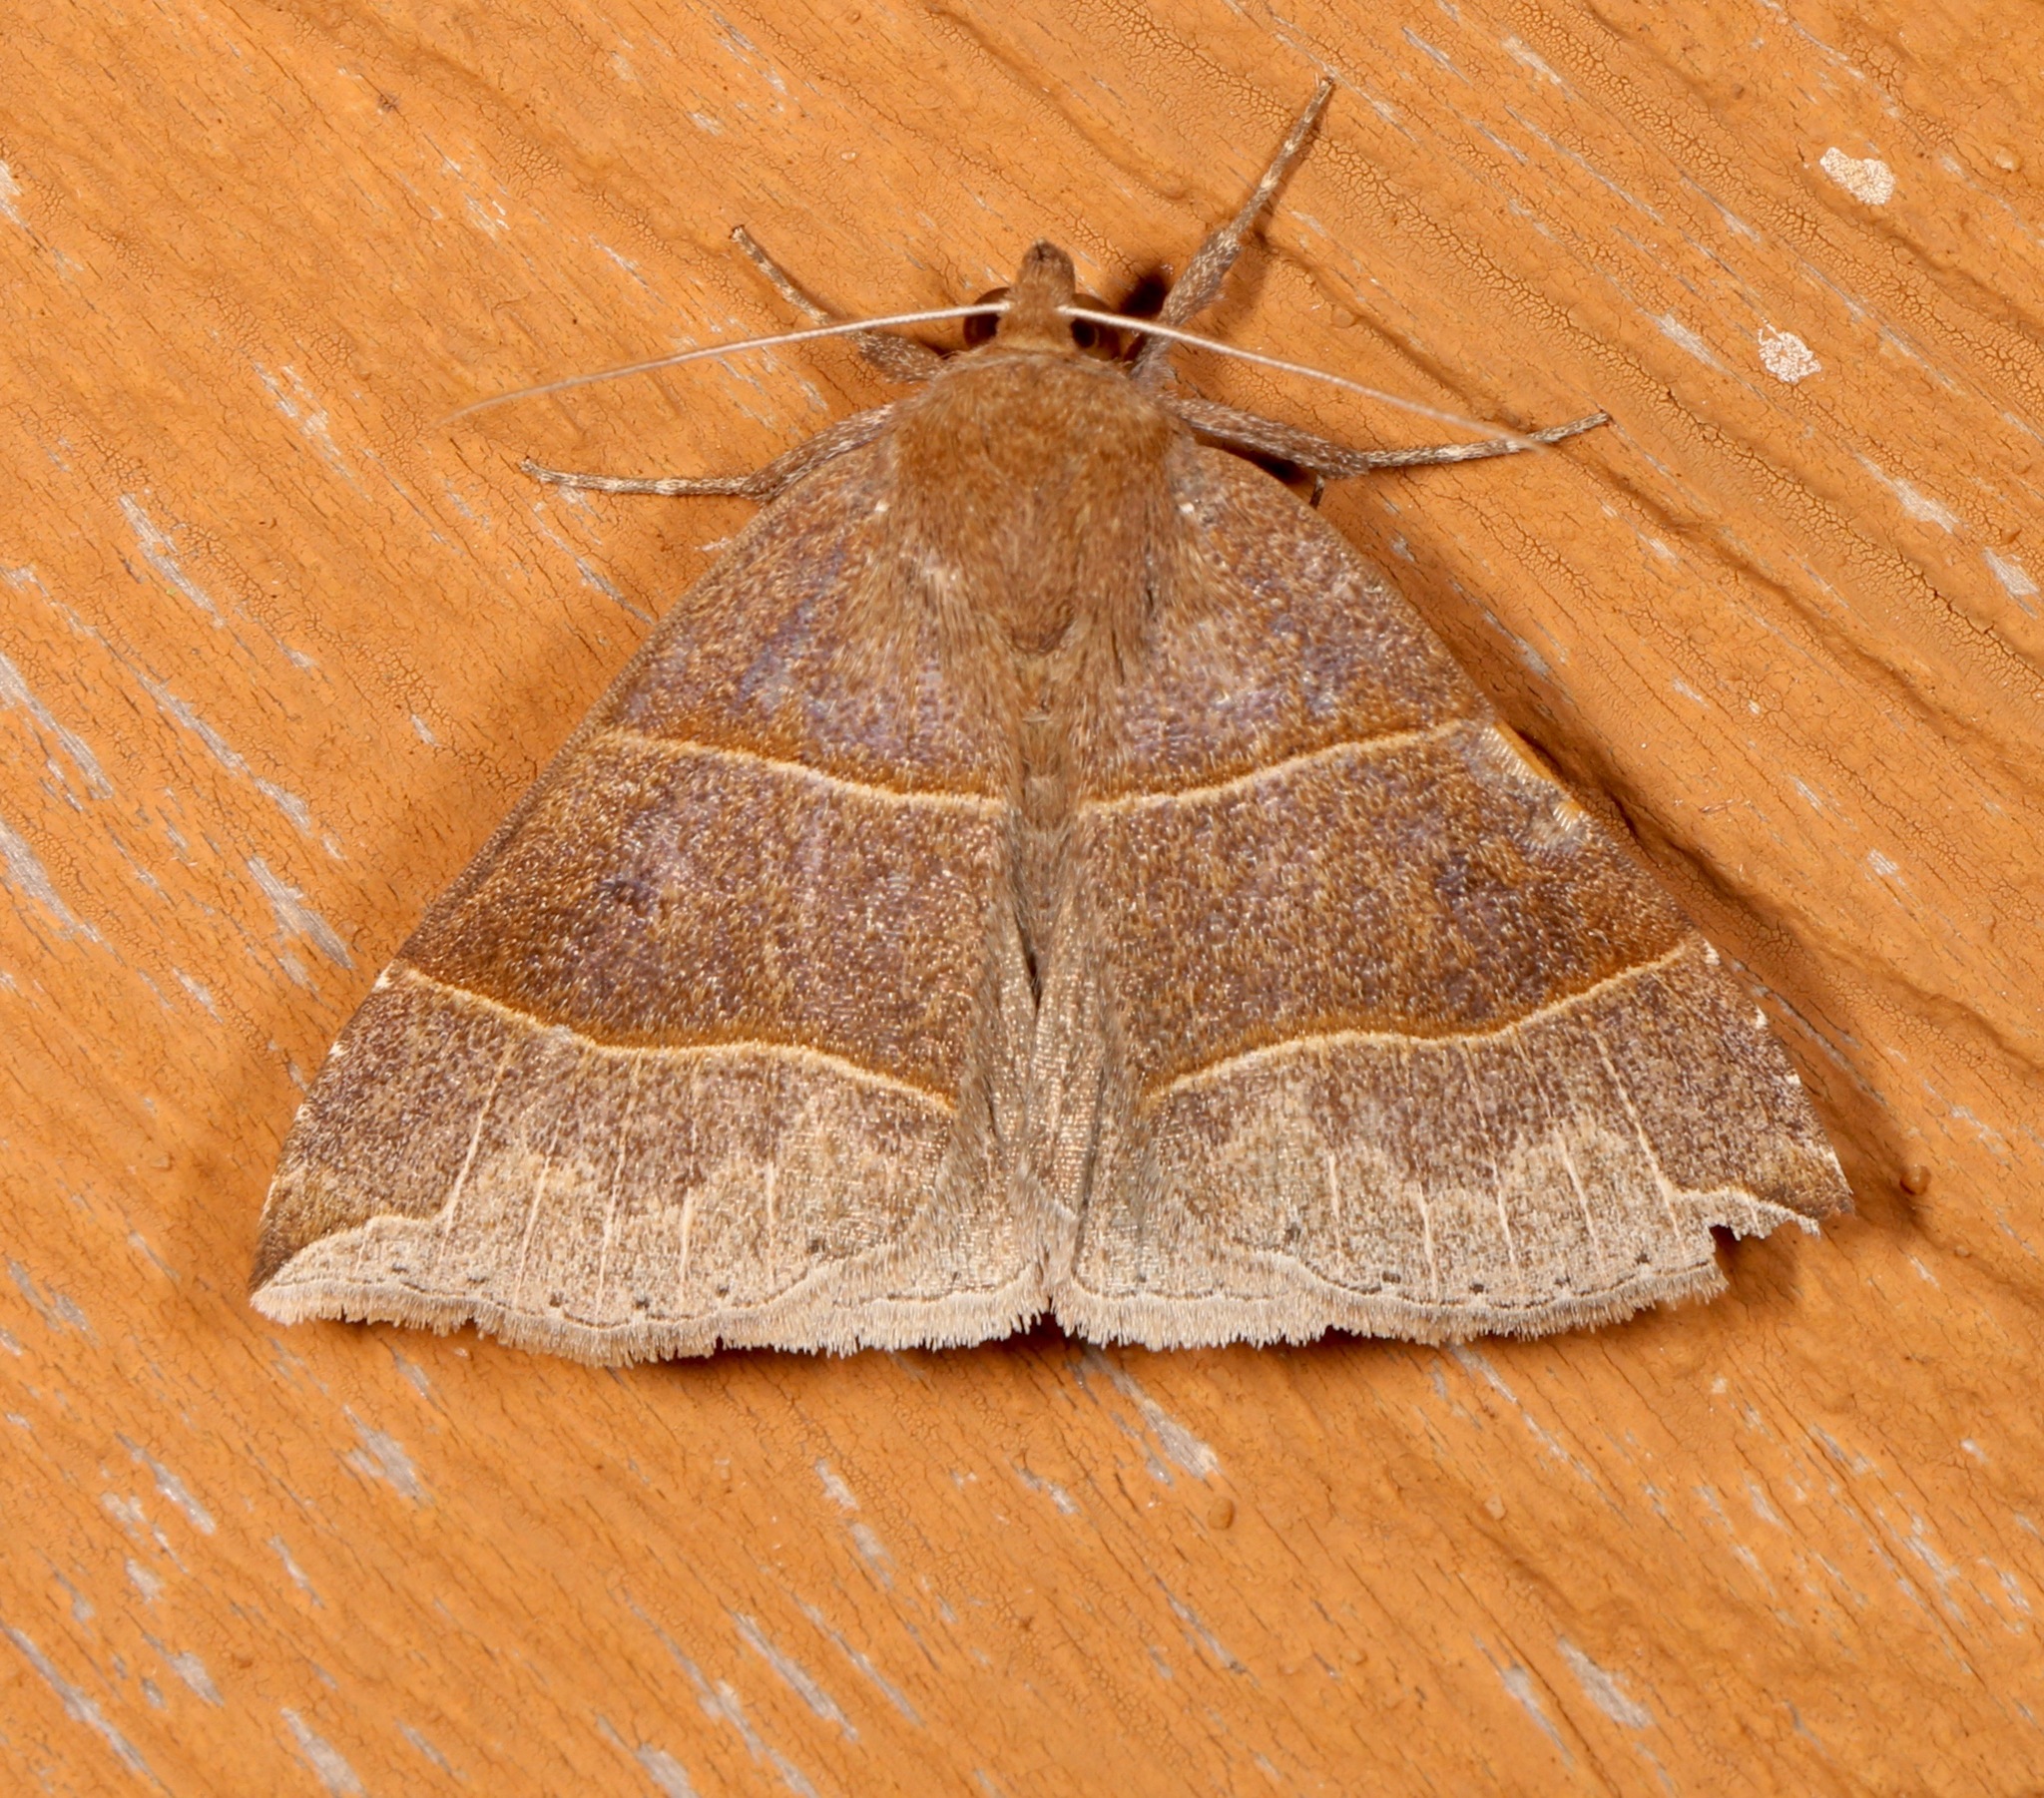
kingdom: Animalia
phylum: Arthropoda
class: Insecta
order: Lepidoptera
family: Erebidae
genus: Parallelia
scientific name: Parallelia bistriaris
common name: Maple looper moth
